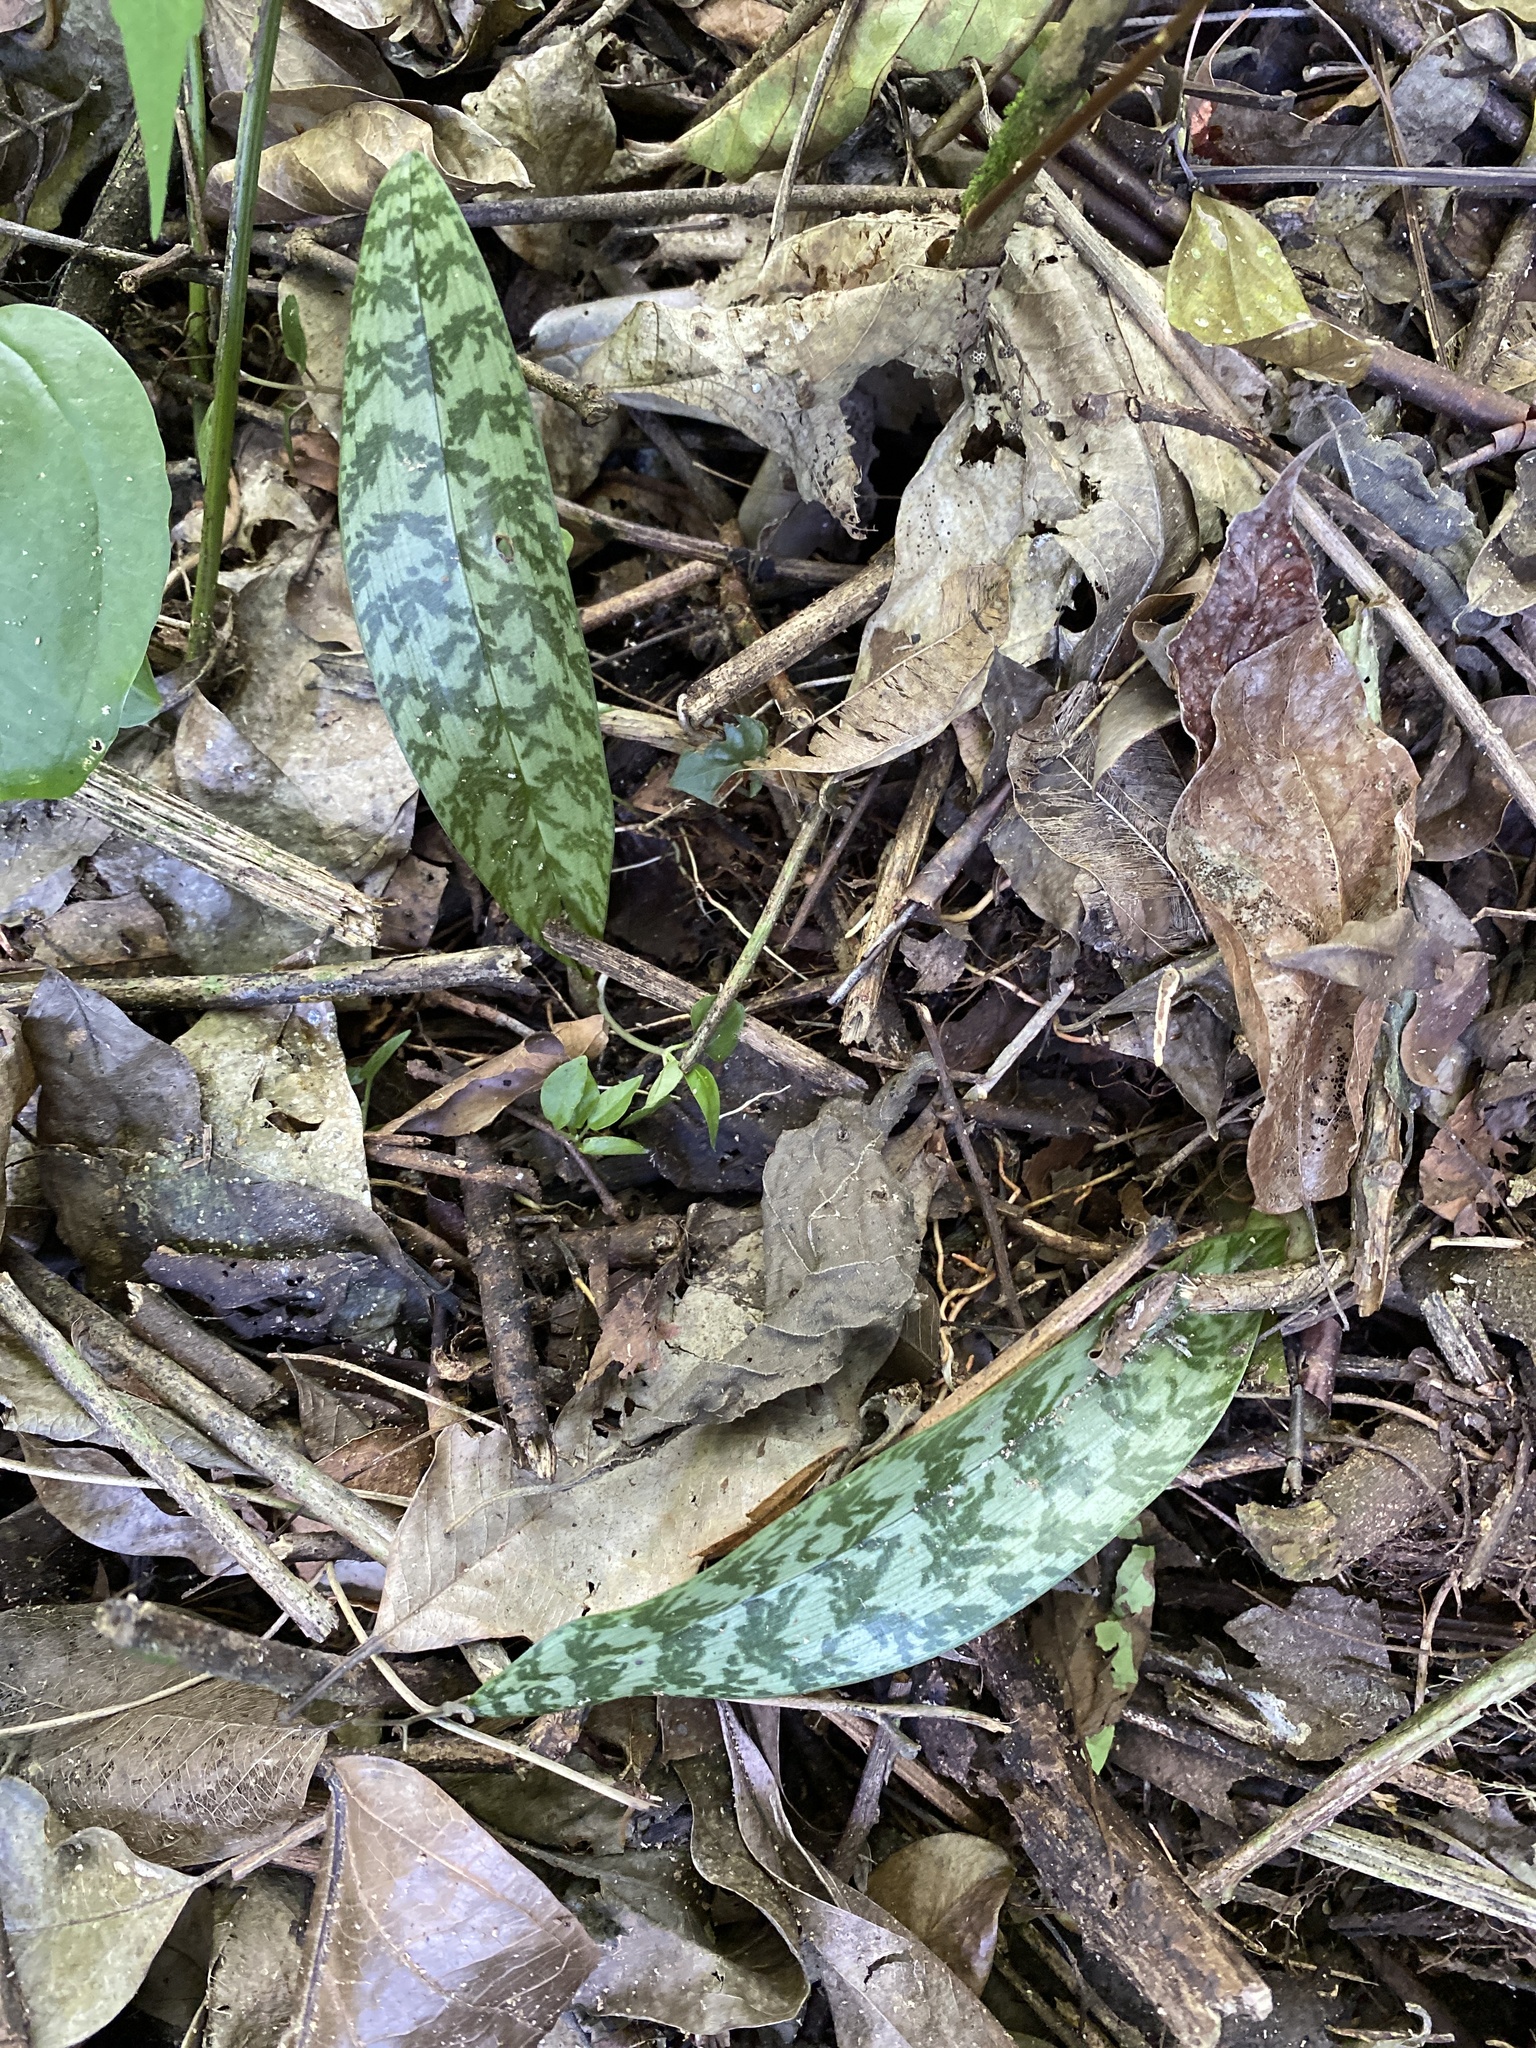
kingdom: Plantae
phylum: Tracheophyta
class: Liliopsida
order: Asparagales
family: Orchidaceae
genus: Eulophia
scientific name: Eulophia maculata
